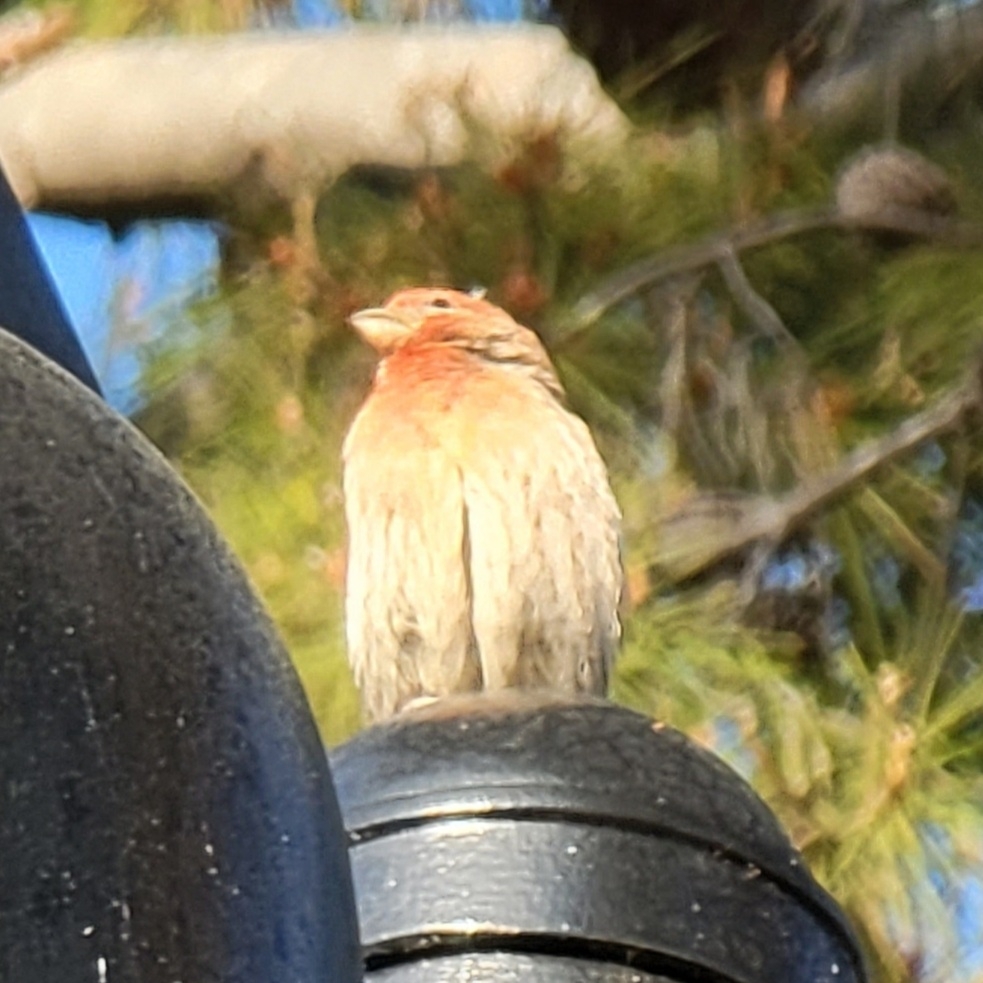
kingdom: Animalia
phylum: Chordata
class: Aves
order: Passeriformes
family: Fringillidae
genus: Haemorhous
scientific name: Haemorhous mexicanus
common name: House finch
